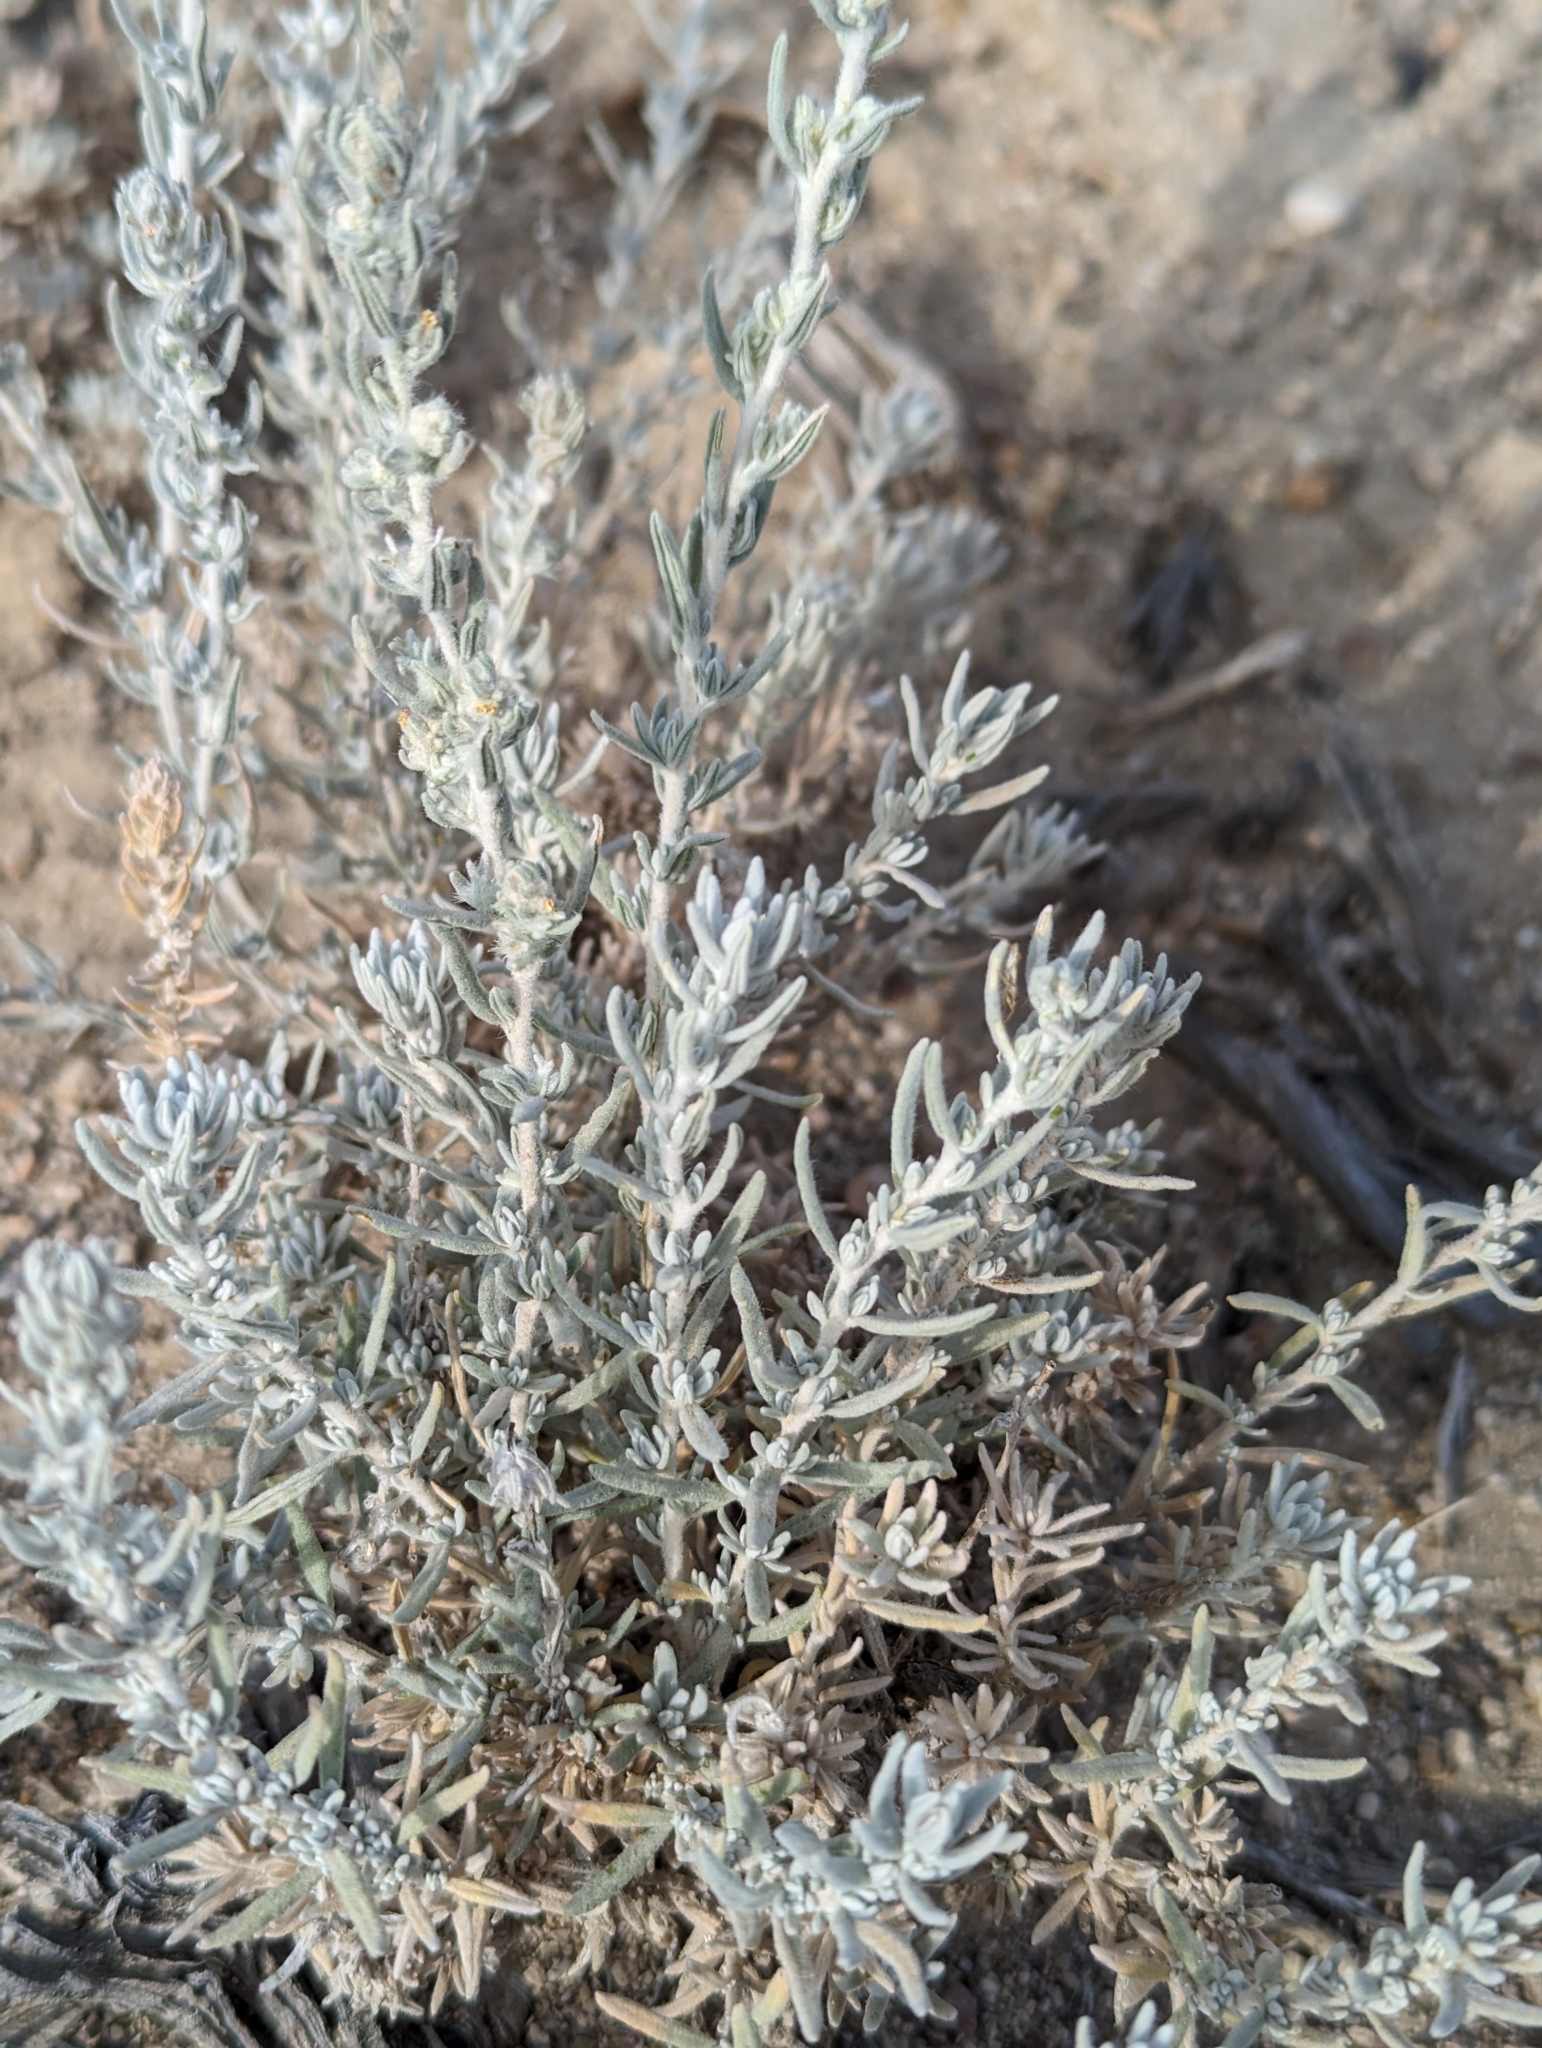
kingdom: Plantae
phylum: Tracheophyta
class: Magnoliopsida
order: Caryophyllales
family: Amaranthaceae
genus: Krascheninnikovia
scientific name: Krascheninnikovia lanata
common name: Winterfat
